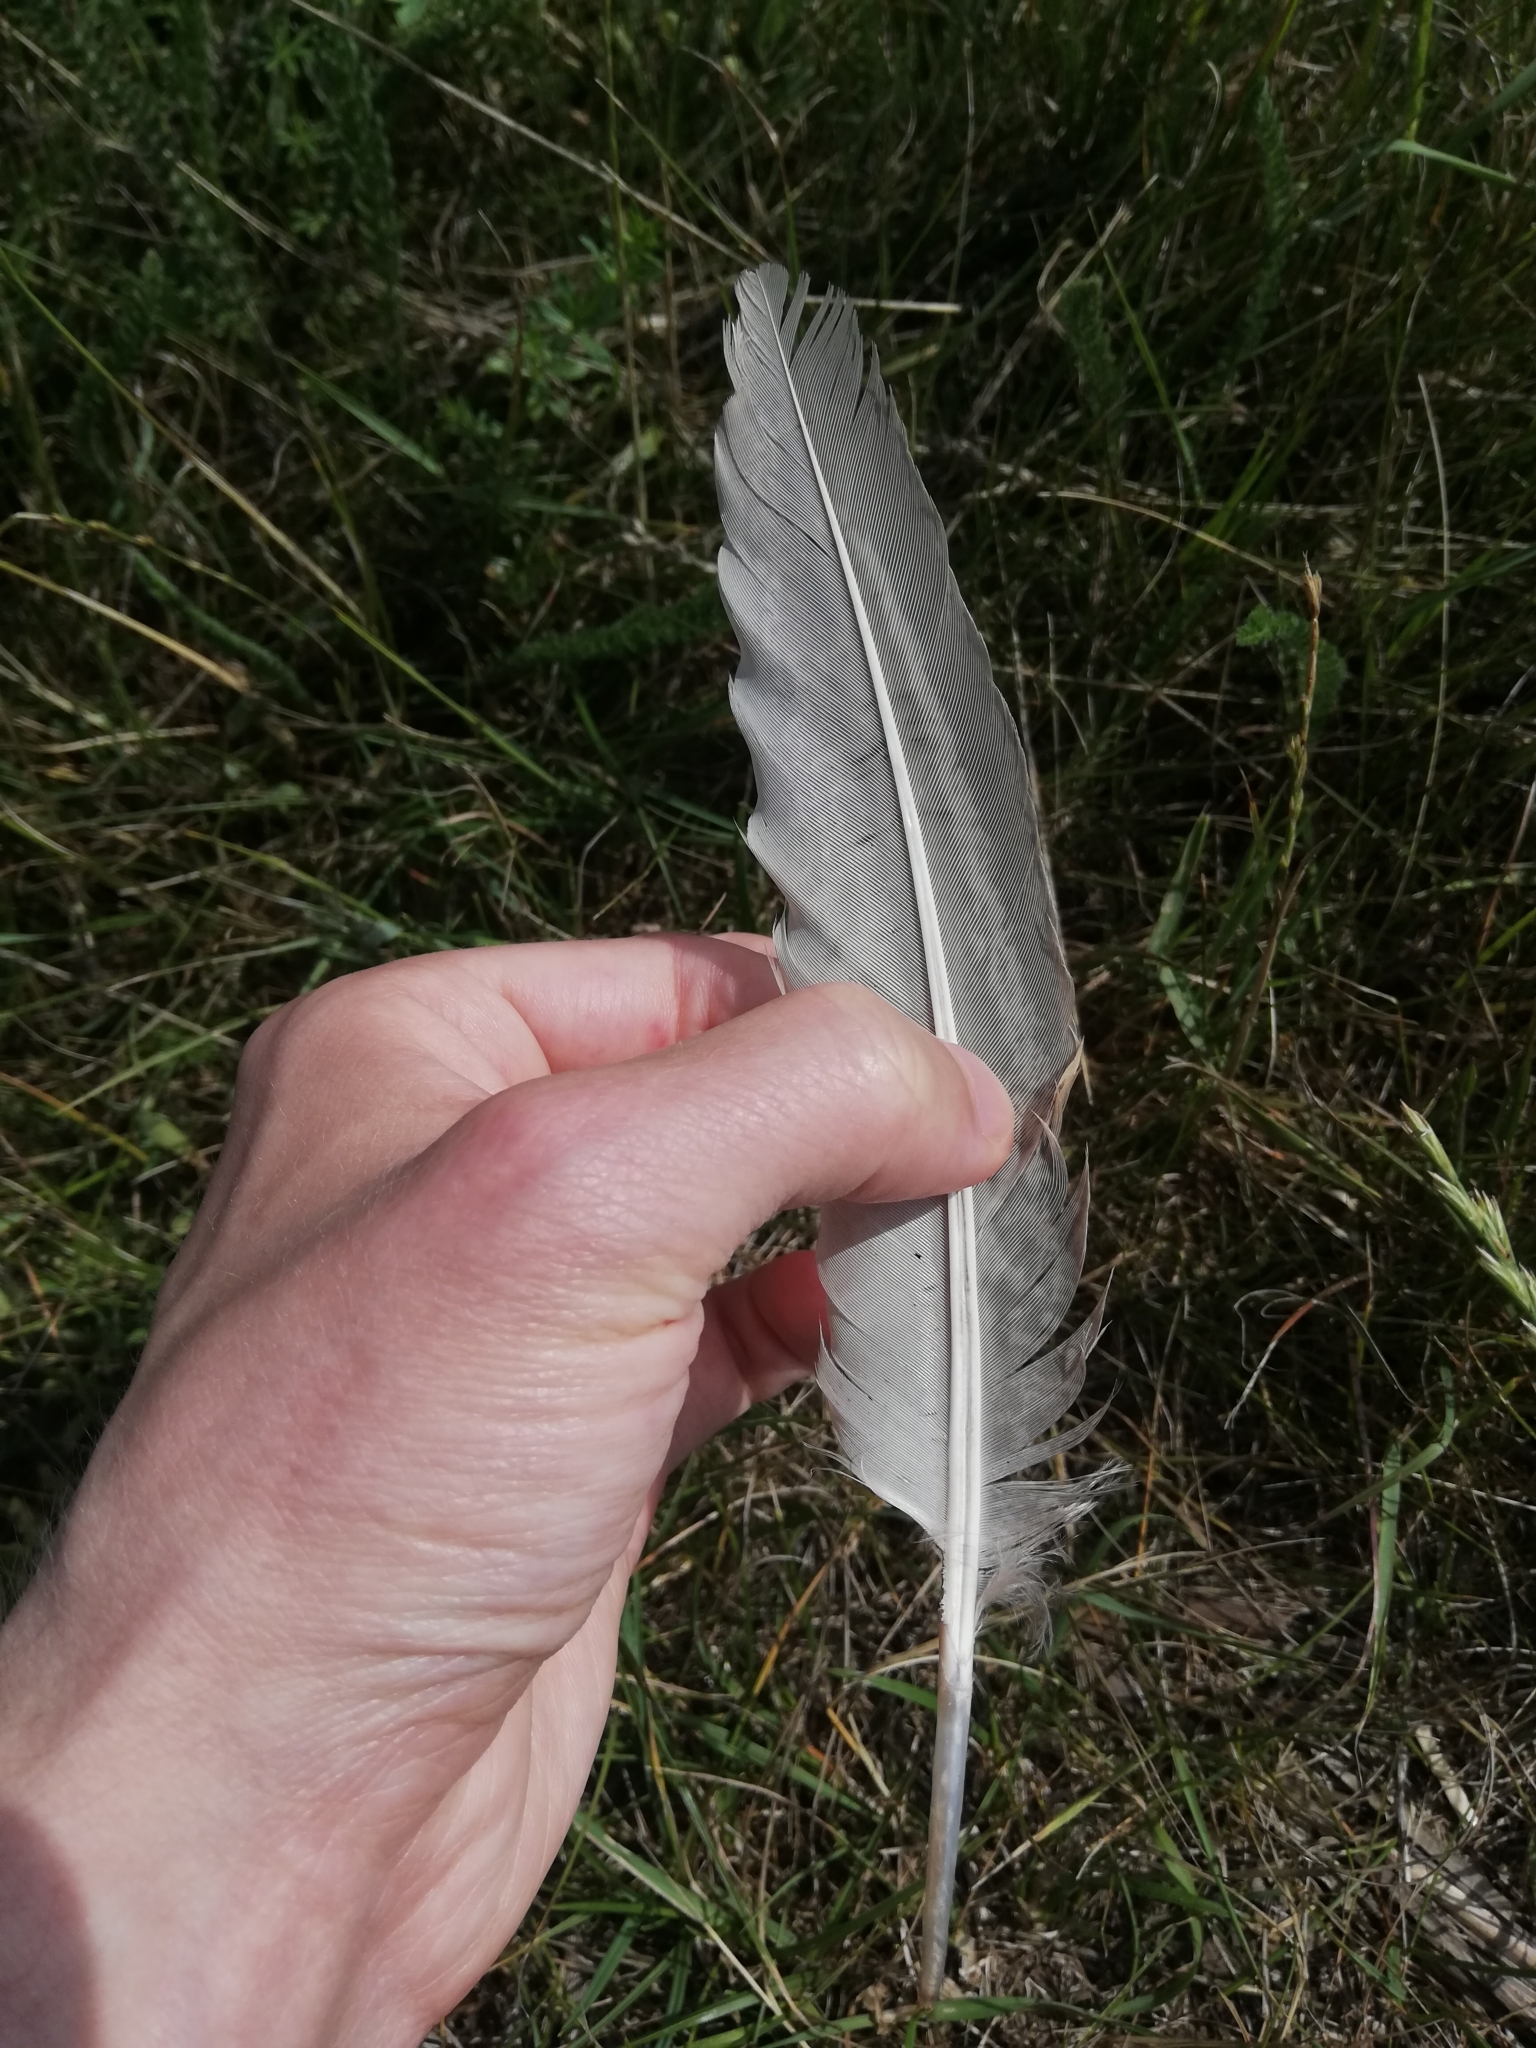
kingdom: Animalia
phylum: Chordata
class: Aves
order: Galliformes
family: Phasianidae
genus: Phasianus
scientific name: Phasianus colchicus
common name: Common pheasant
